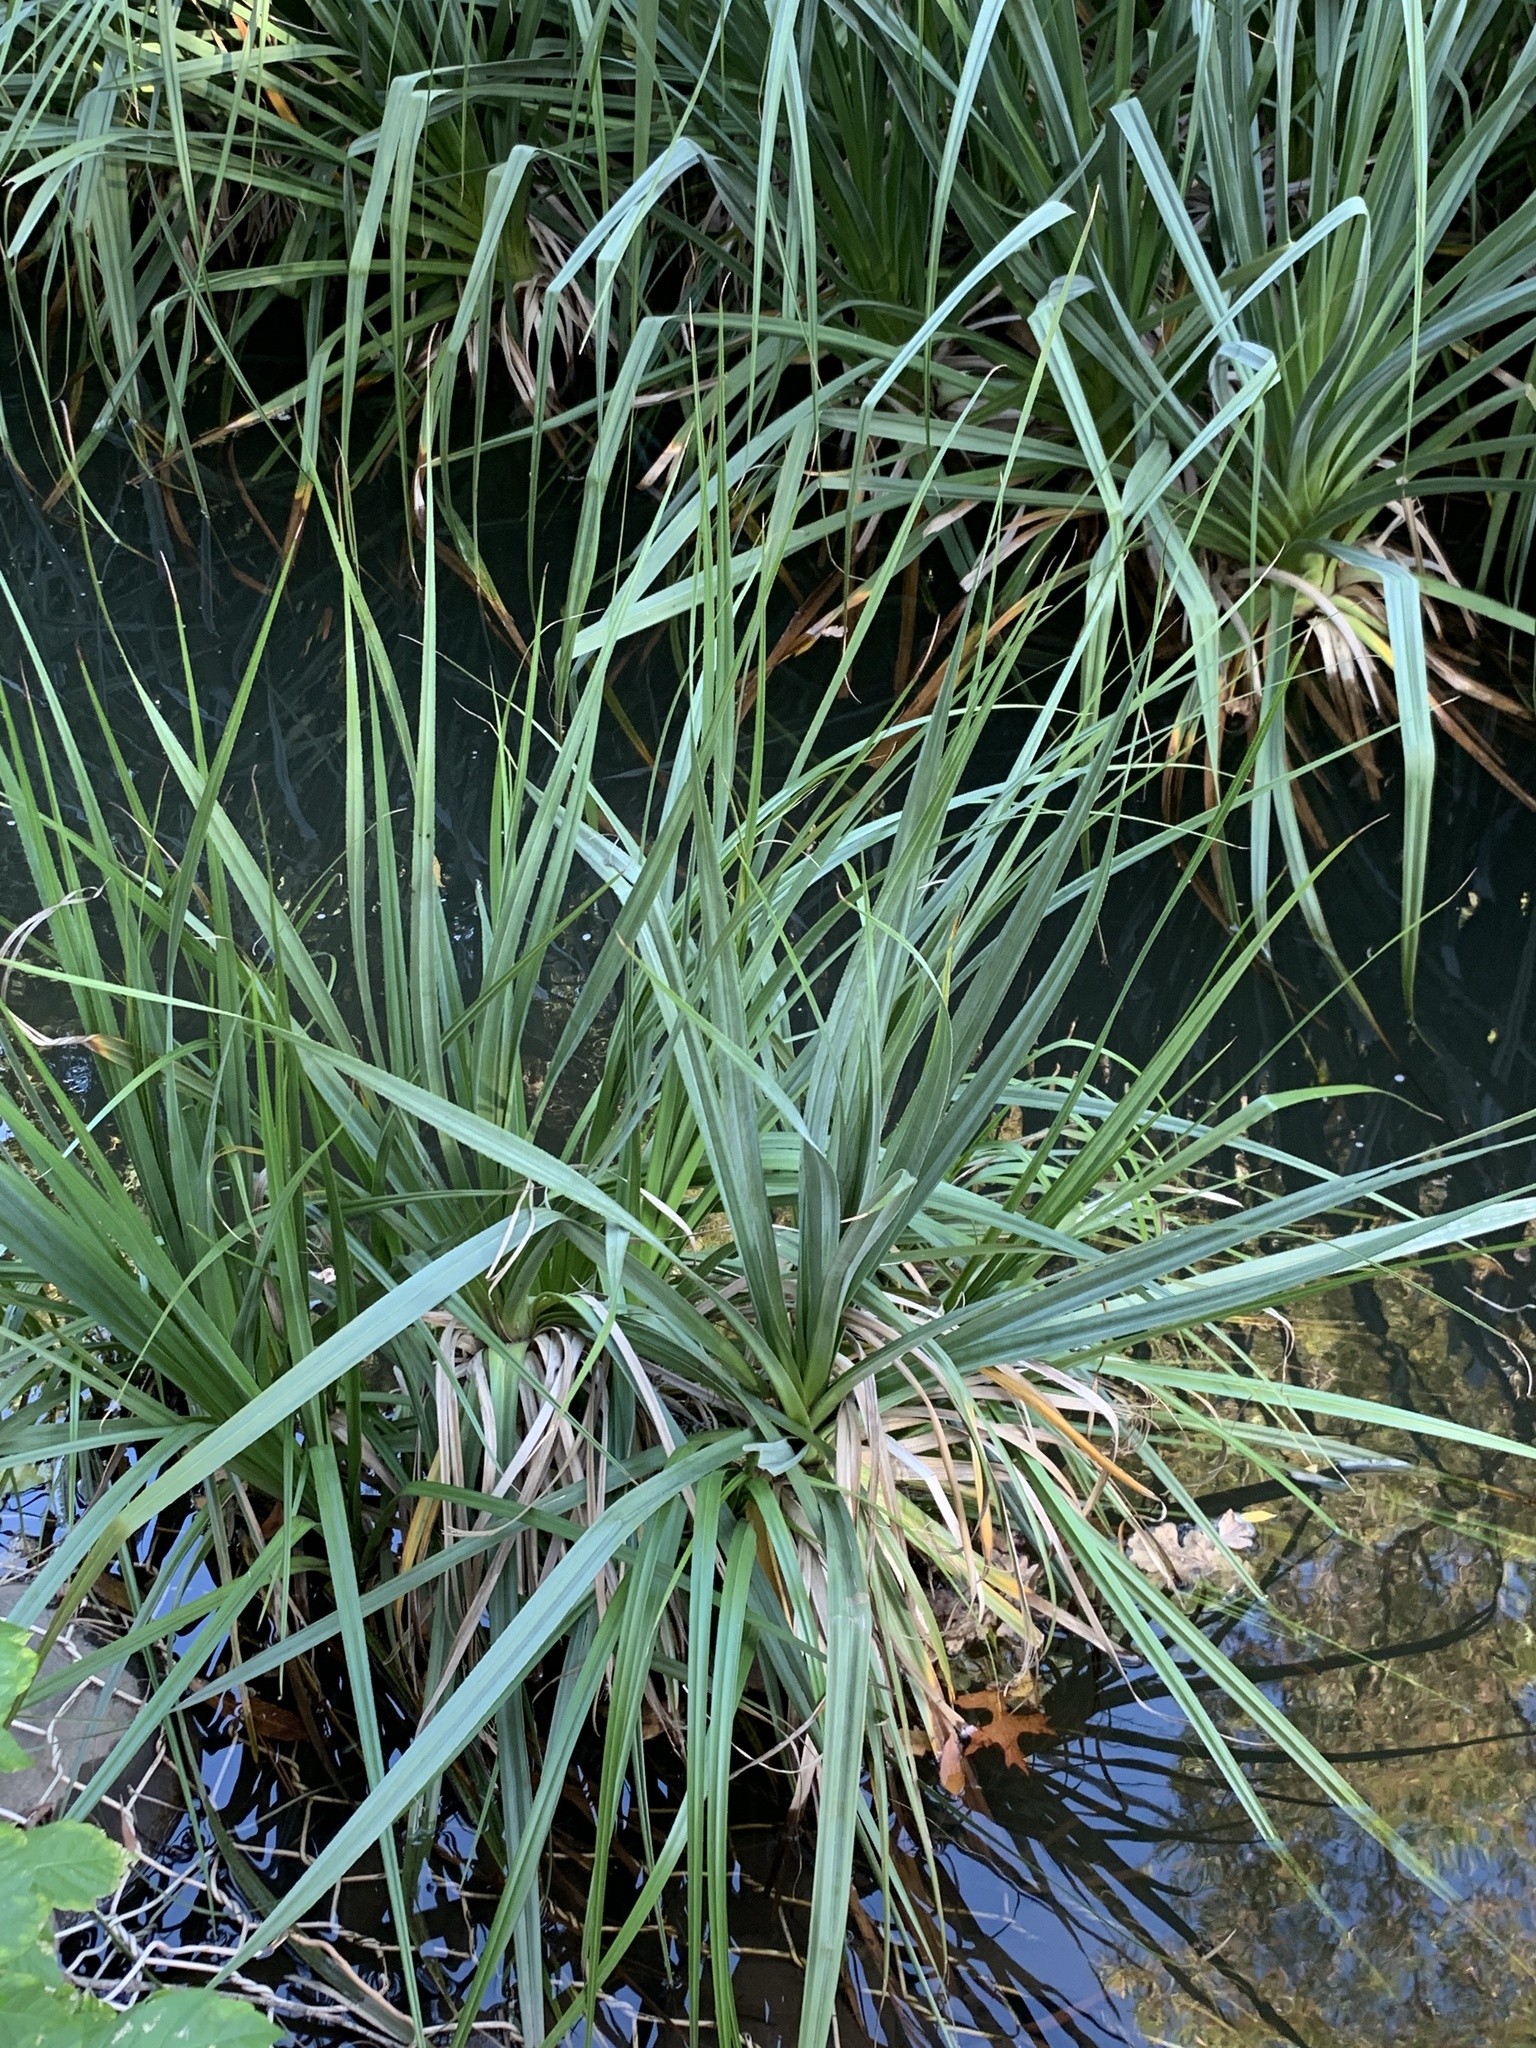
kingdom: Plantae
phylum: Tracheophyta
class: Liliopsida
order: Poales
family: Thurniaceae
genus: Prionium
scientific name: Prionium serratum
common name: Palmiet
